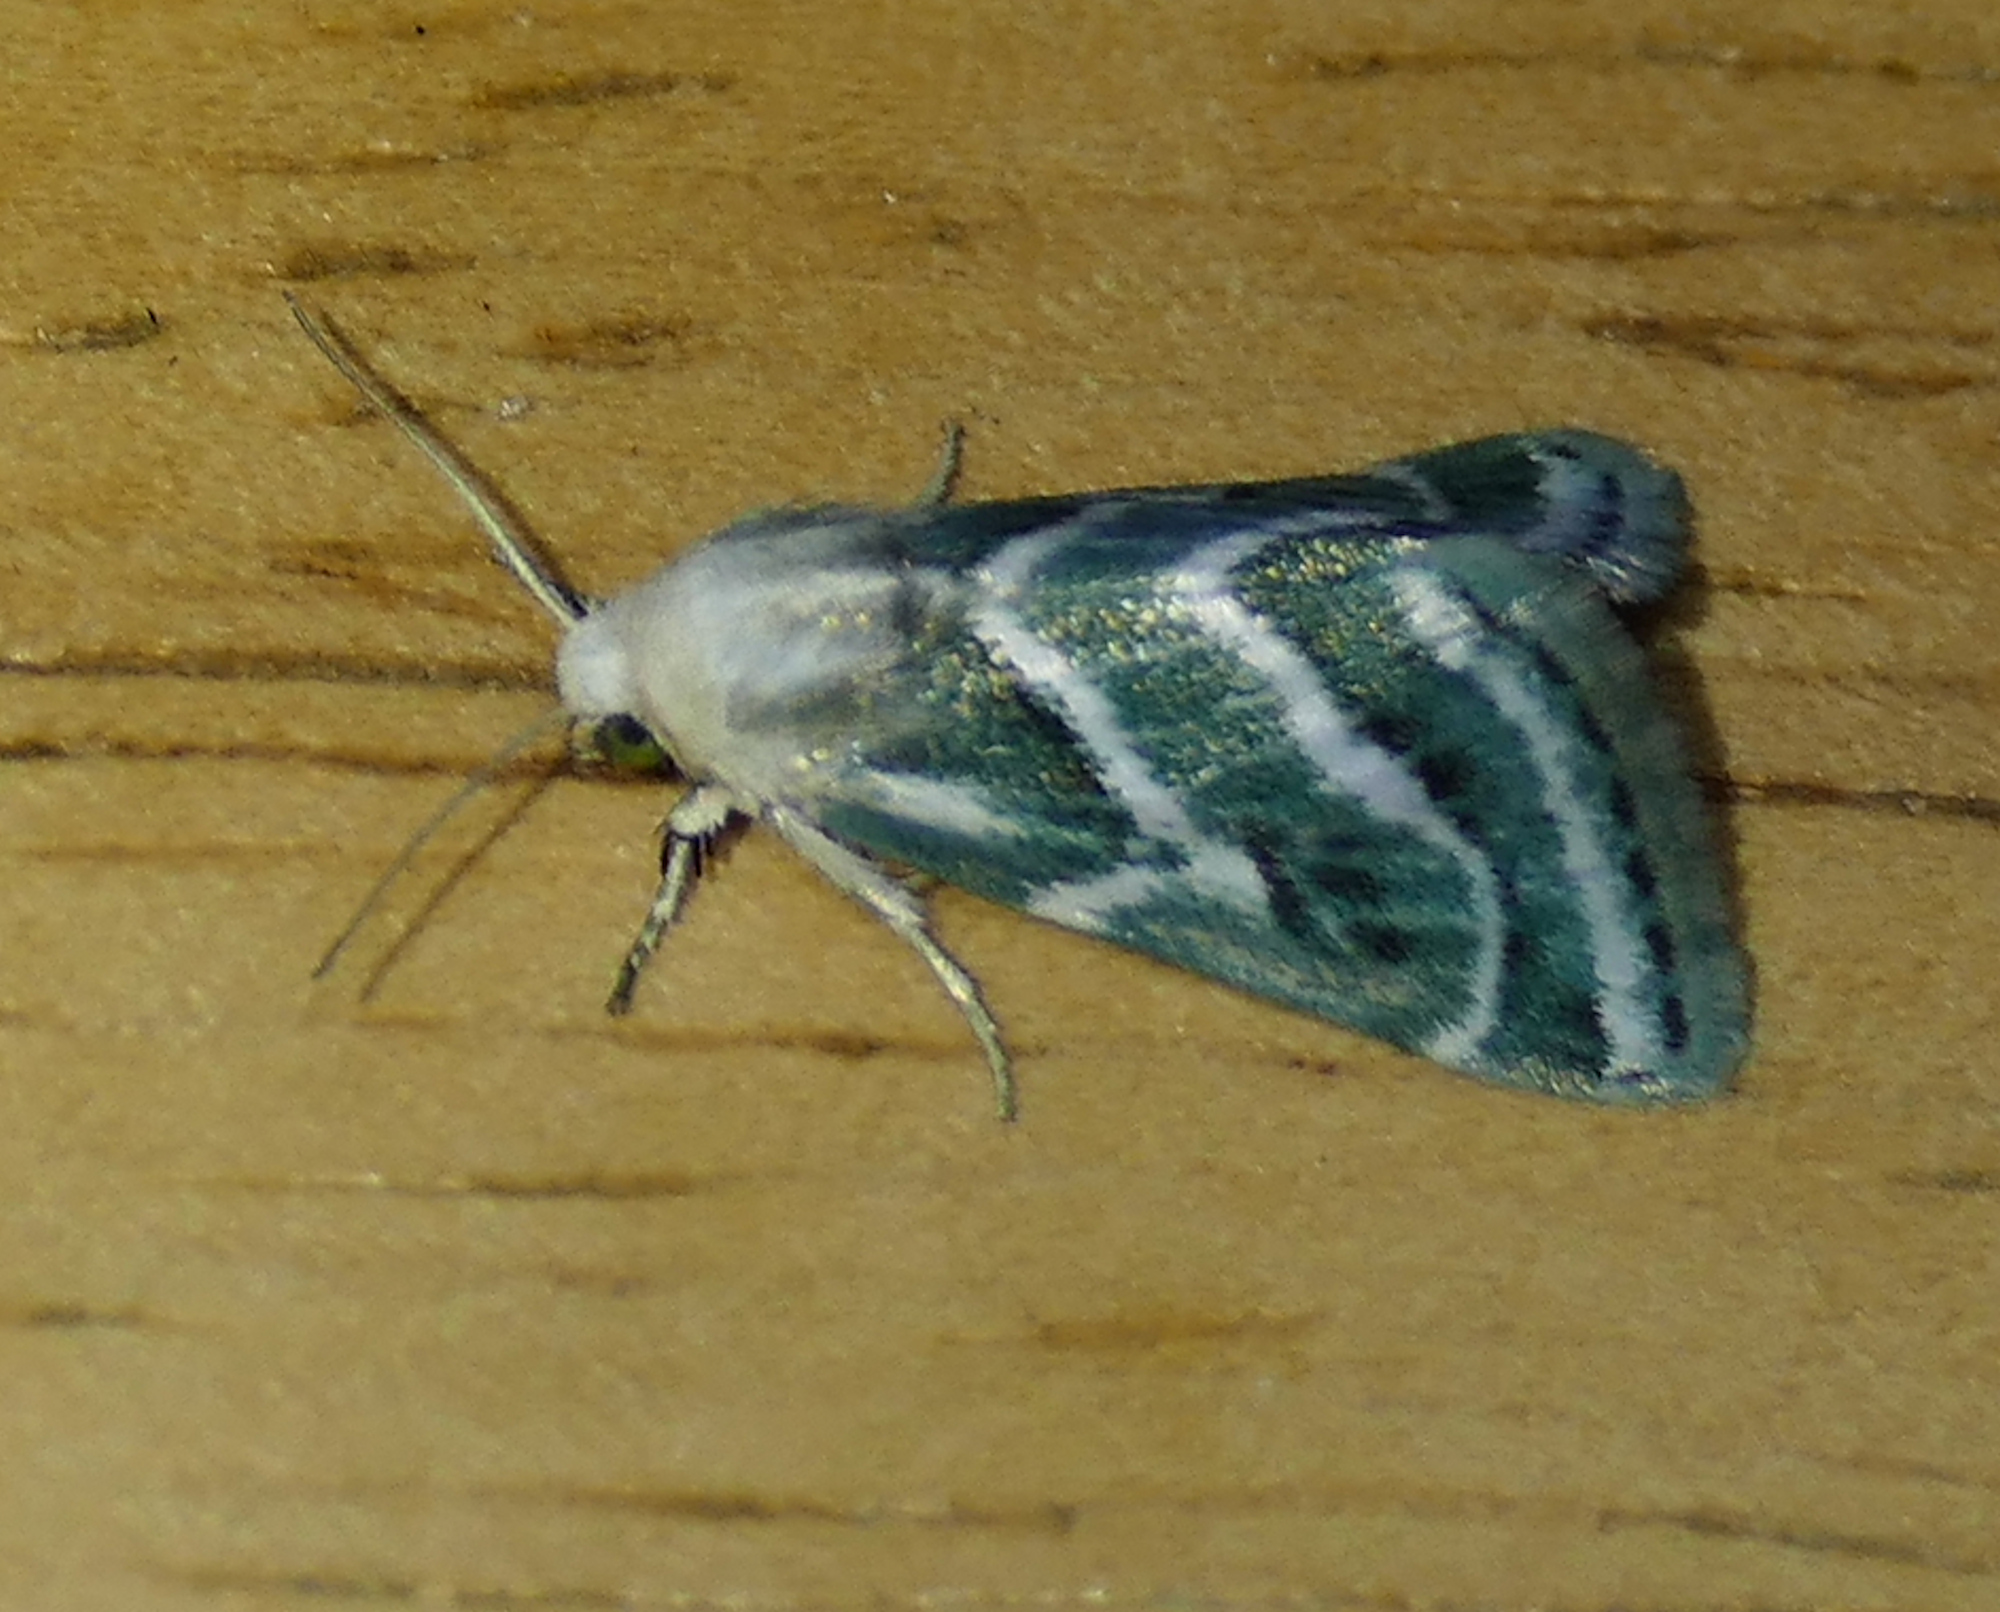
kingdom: Animalia
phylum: Arthropoda
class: Insecta
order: Lepidoptera
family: Noctuidae
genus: Schinia
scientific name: Schinia accessa
